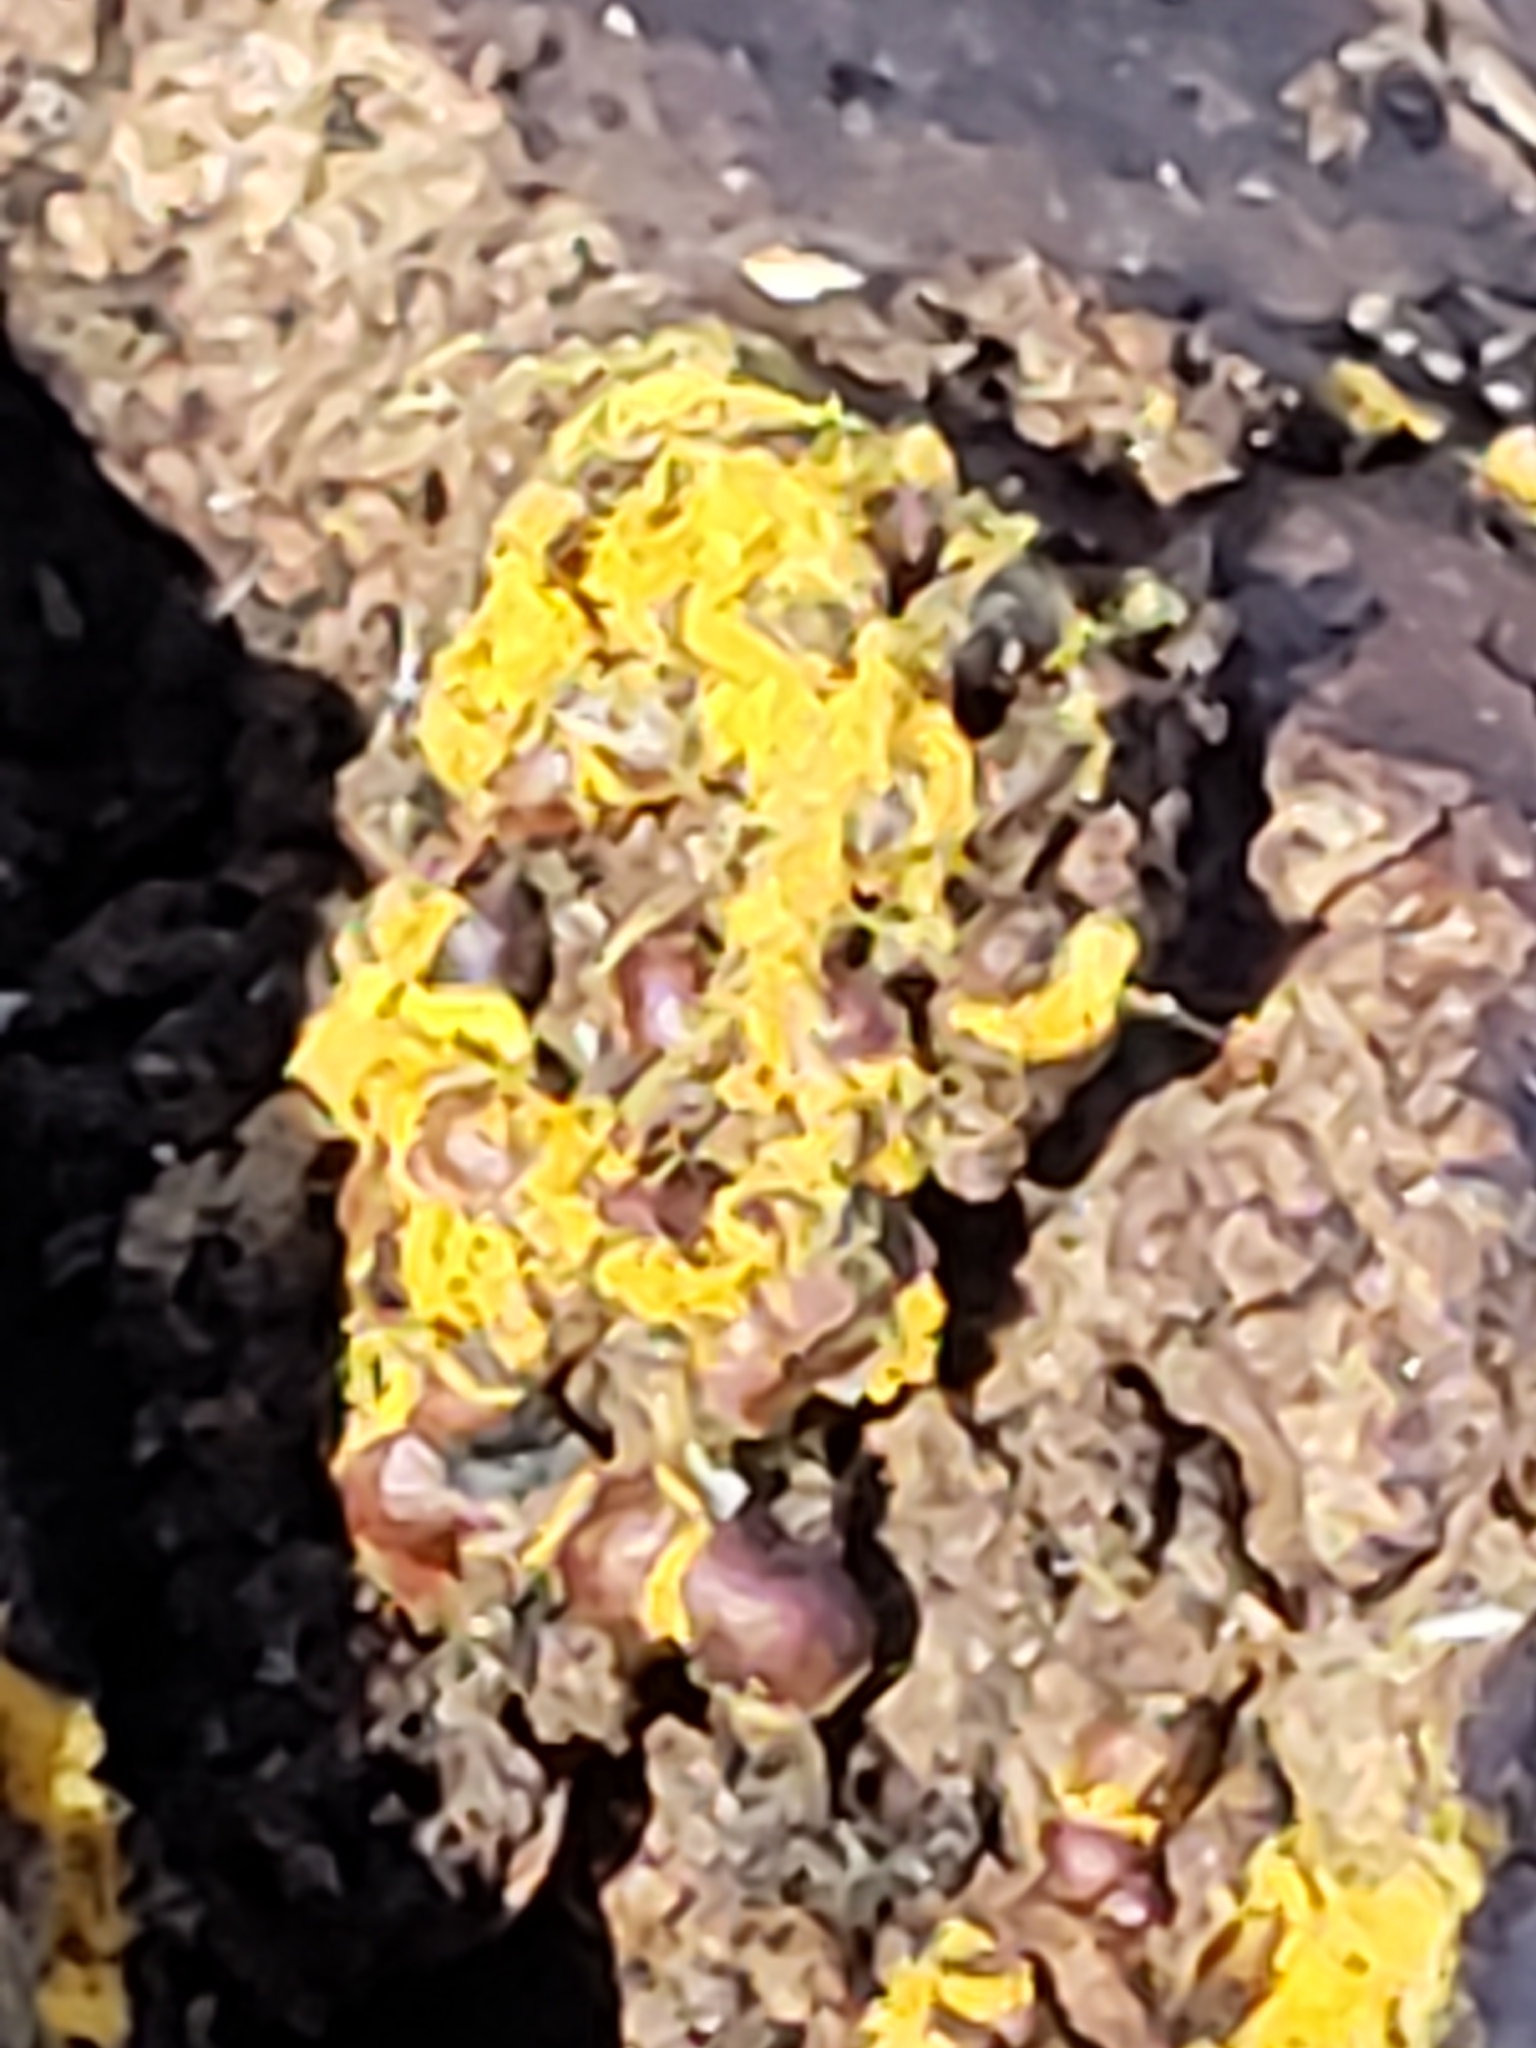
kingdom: Protozoa
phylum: Mycetozoa
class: Myxomycetes
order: Trichiales
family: Trichiaceae
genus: Perichaena
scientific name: Perichaena depressa
